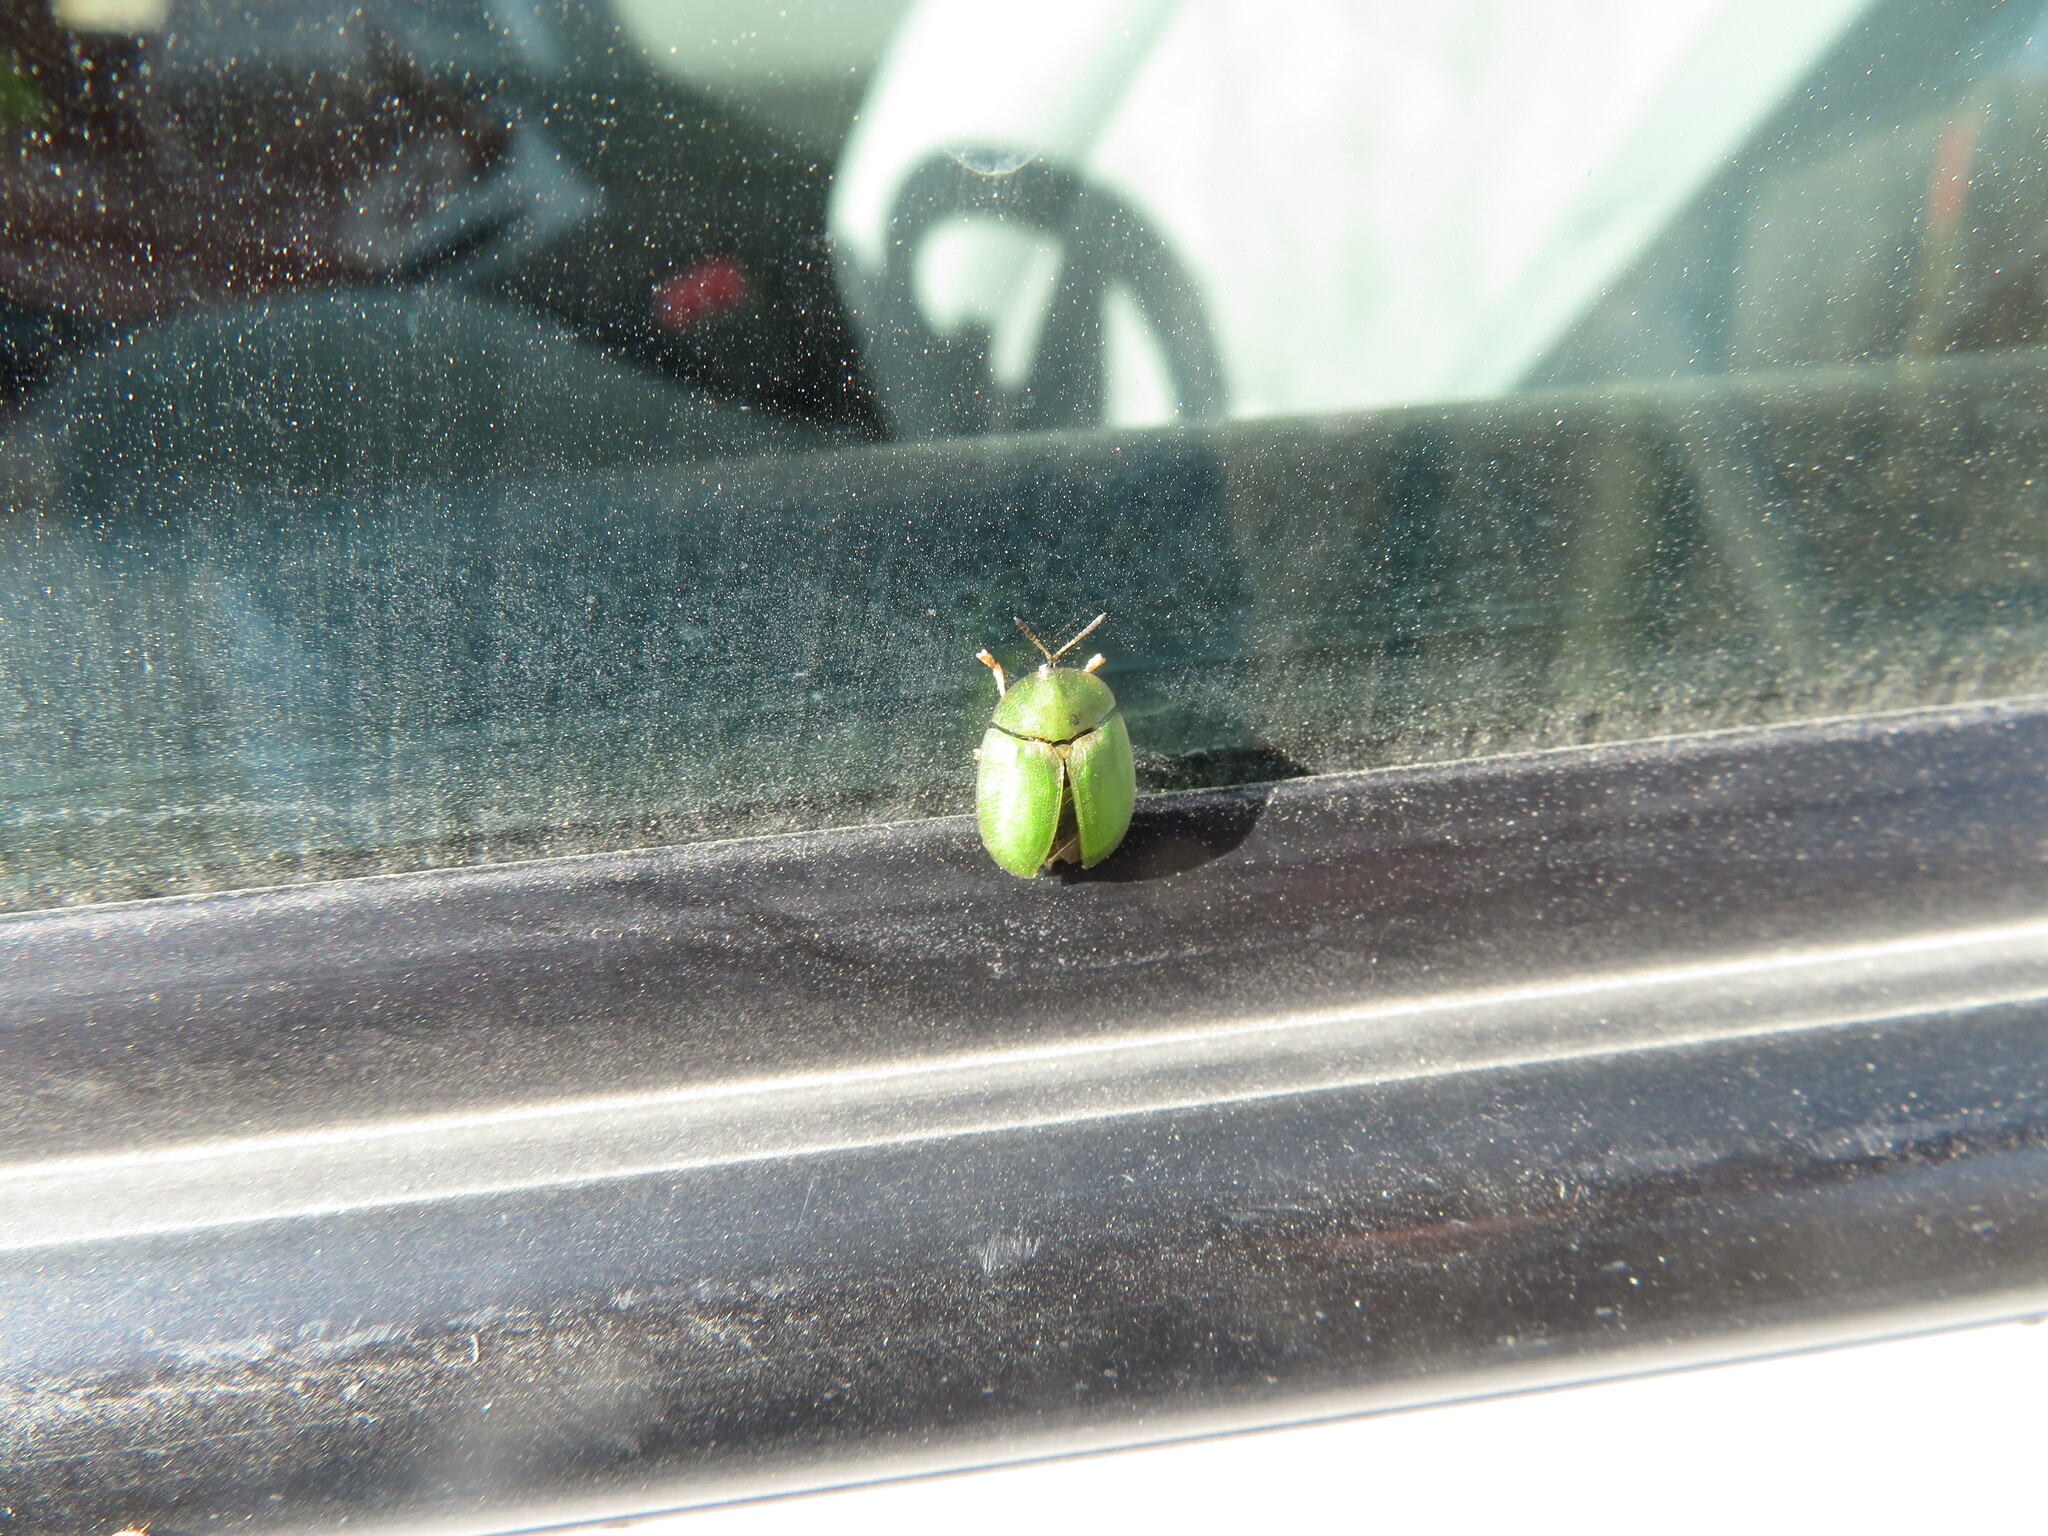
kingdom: Animalia
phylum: Arthropoda
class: Insecta
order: Coleoptera
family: Chrysomelidae
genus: Cassida
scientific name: Cassida rubiginosa
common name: Thistle tortoise beetle
